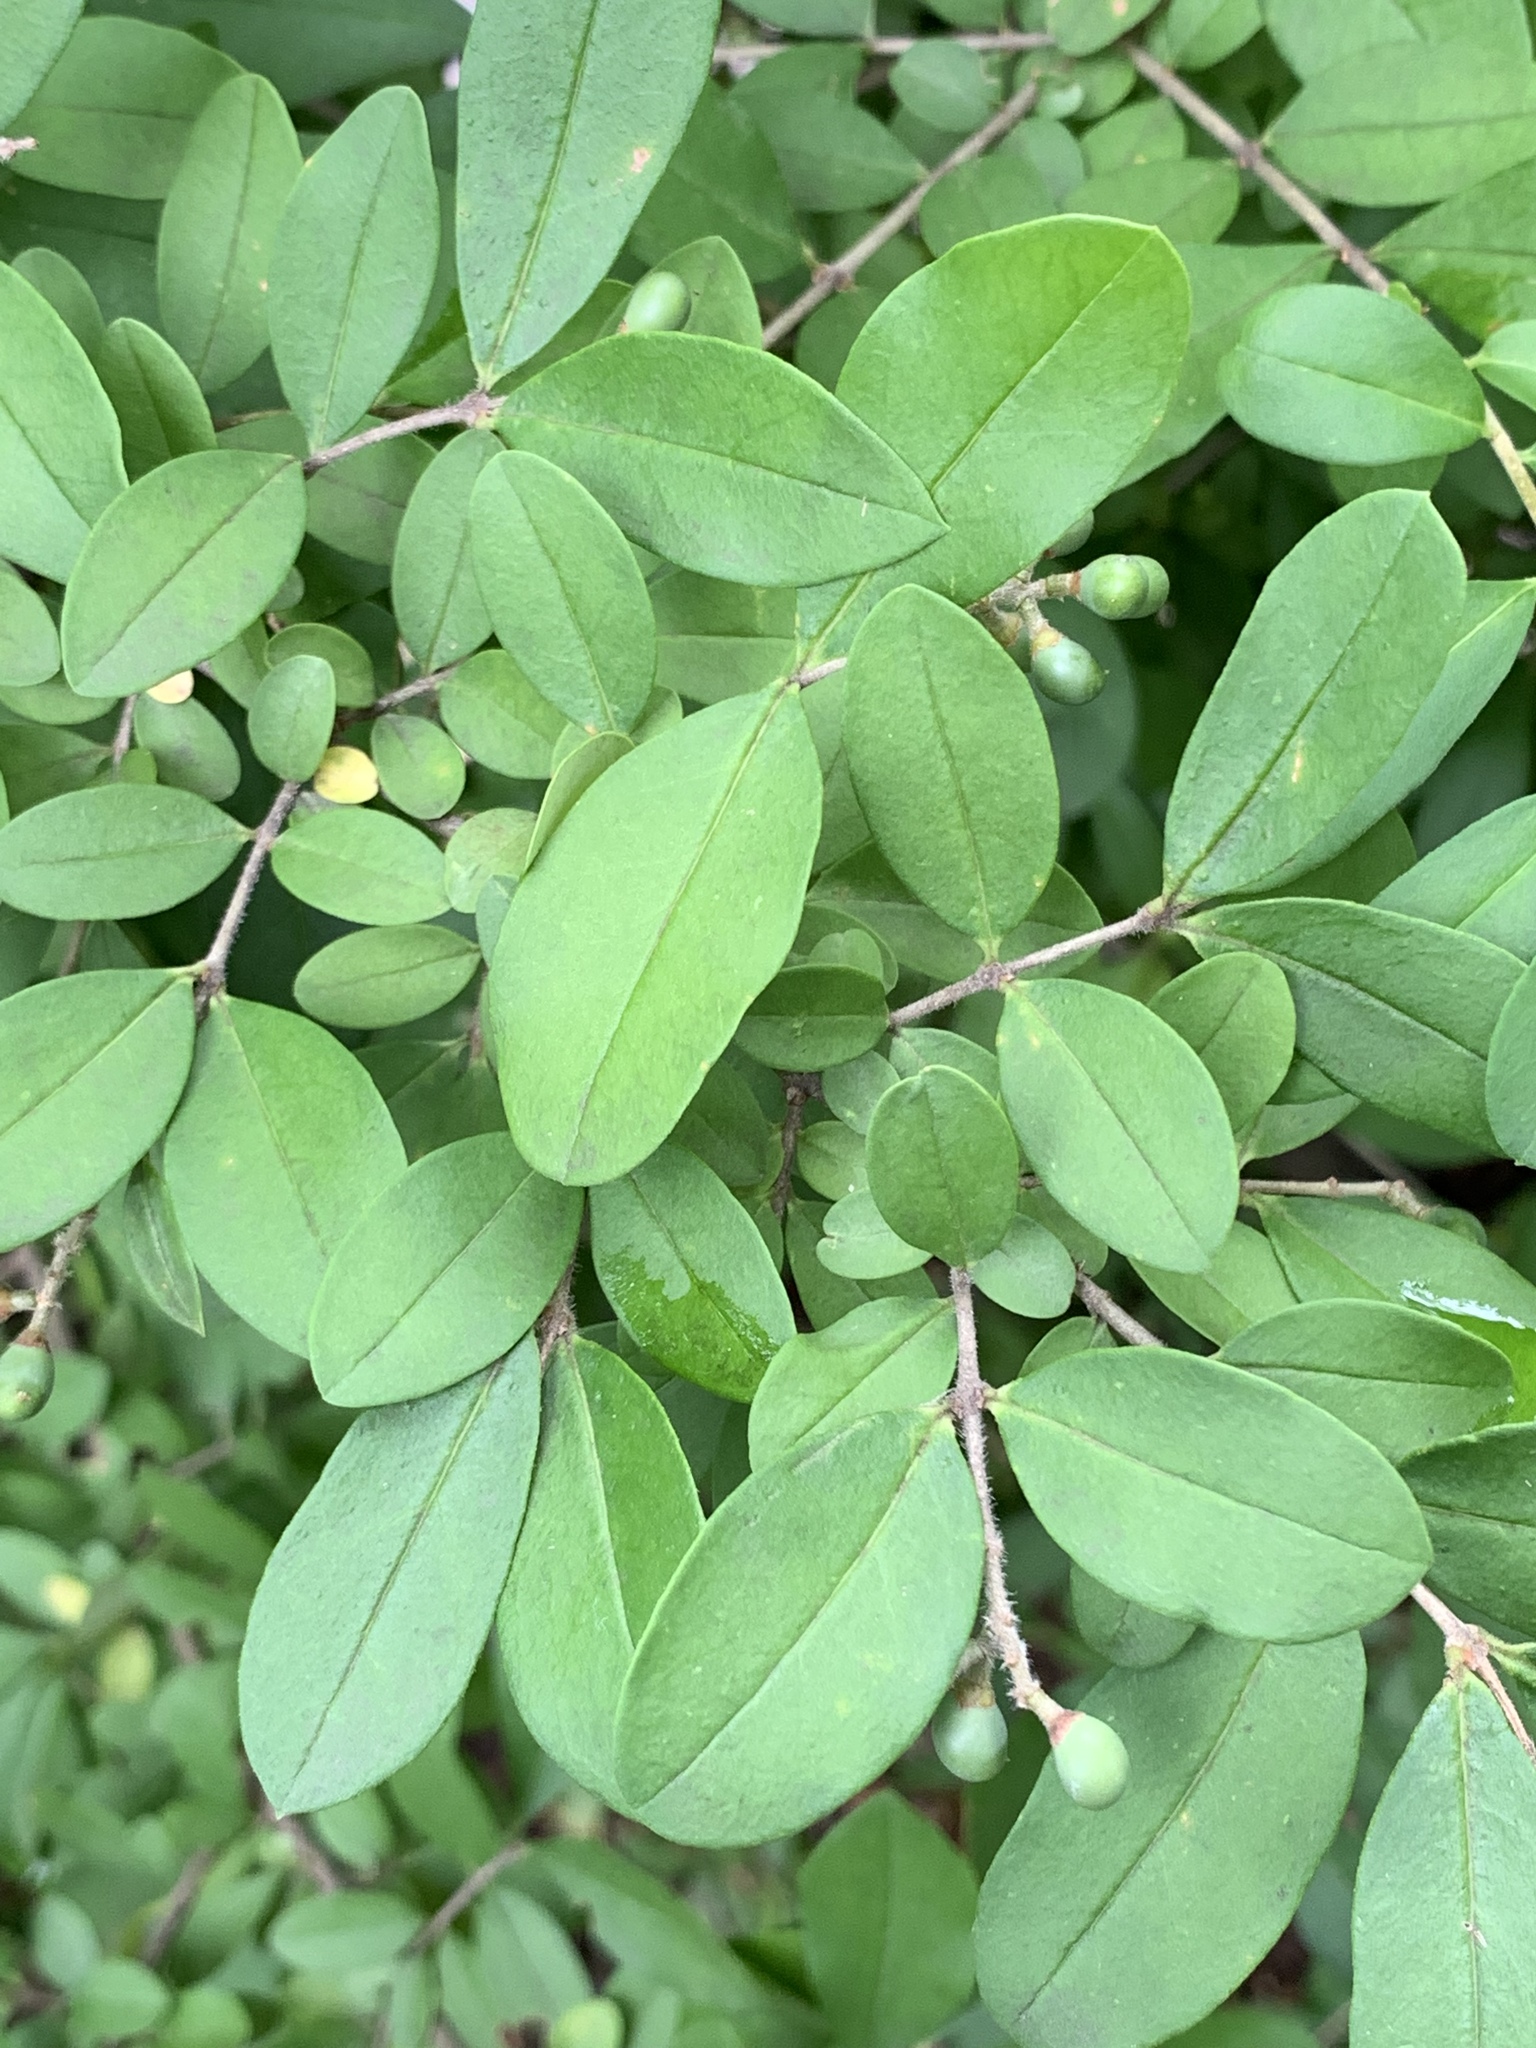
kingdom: Plantae
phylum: Tracheophyta
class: Magnoliopsida
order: Lamiales
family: Oleaceae
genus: Ligustrum
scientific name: Ligustrum obtusifolium
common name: Border privet
